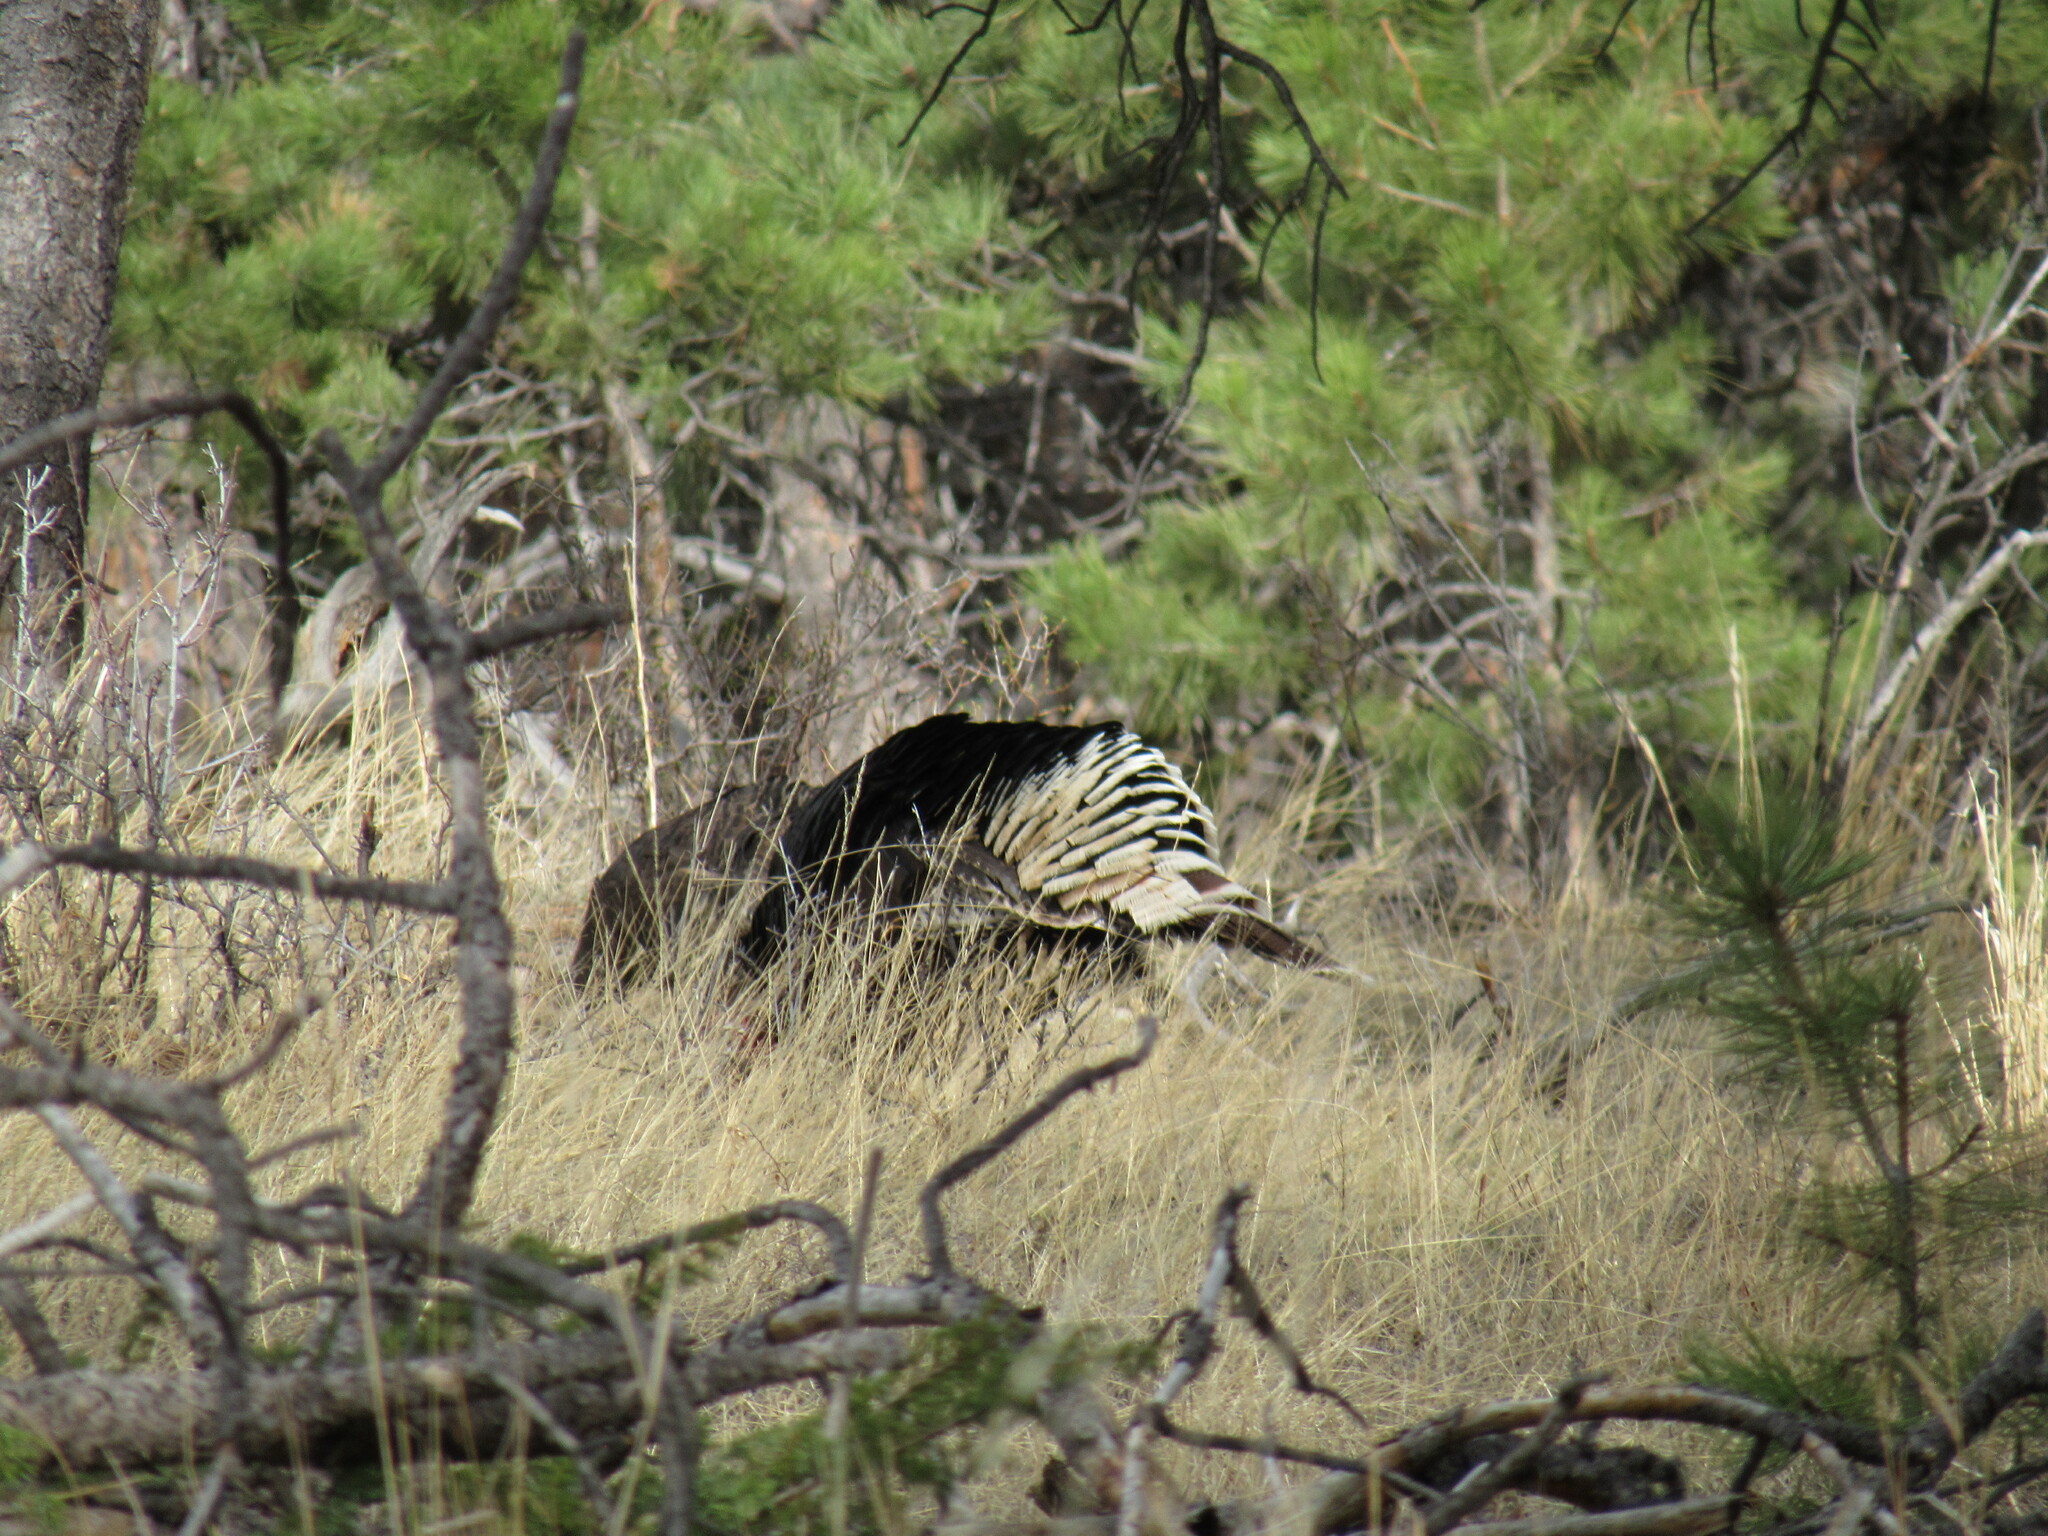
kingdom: Animalia
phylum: Chordata
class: Aves
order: Galliformes
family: Phasianidae
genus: Meleagris
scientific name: Meleagris gallopavo
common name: Wild turkey
